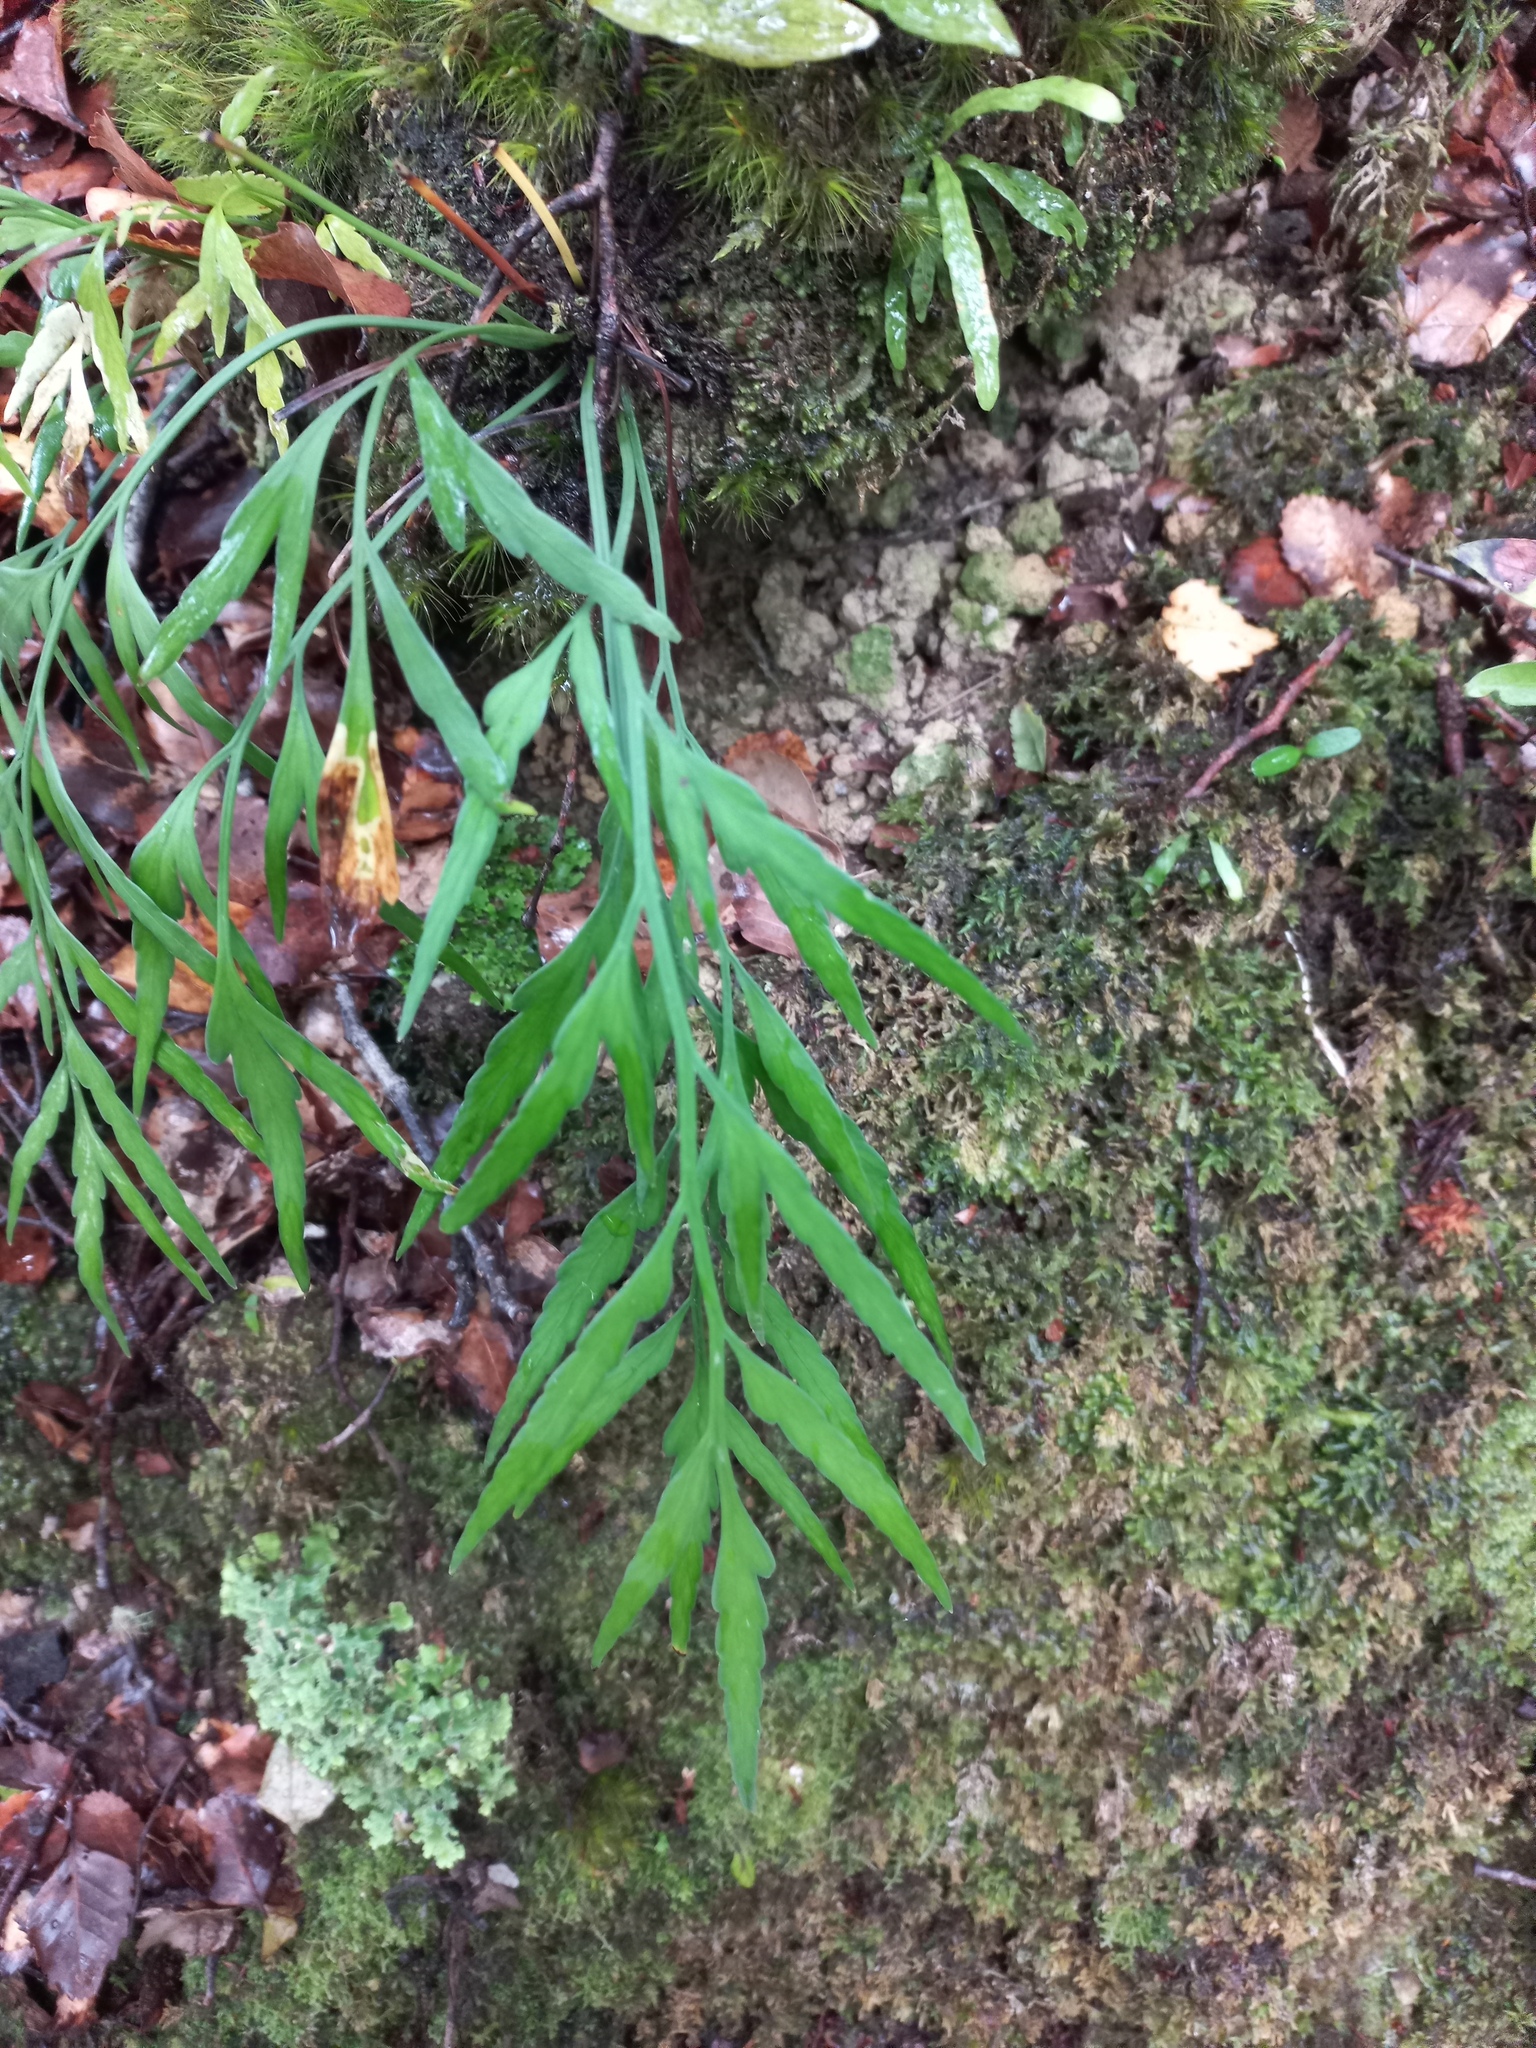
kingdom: Plantae
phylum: Tracheophyta
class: Polypodiopsida
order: Polypodiales
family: Aspleniaceae
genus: Asplenium
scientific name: Asplenium flaccidum
